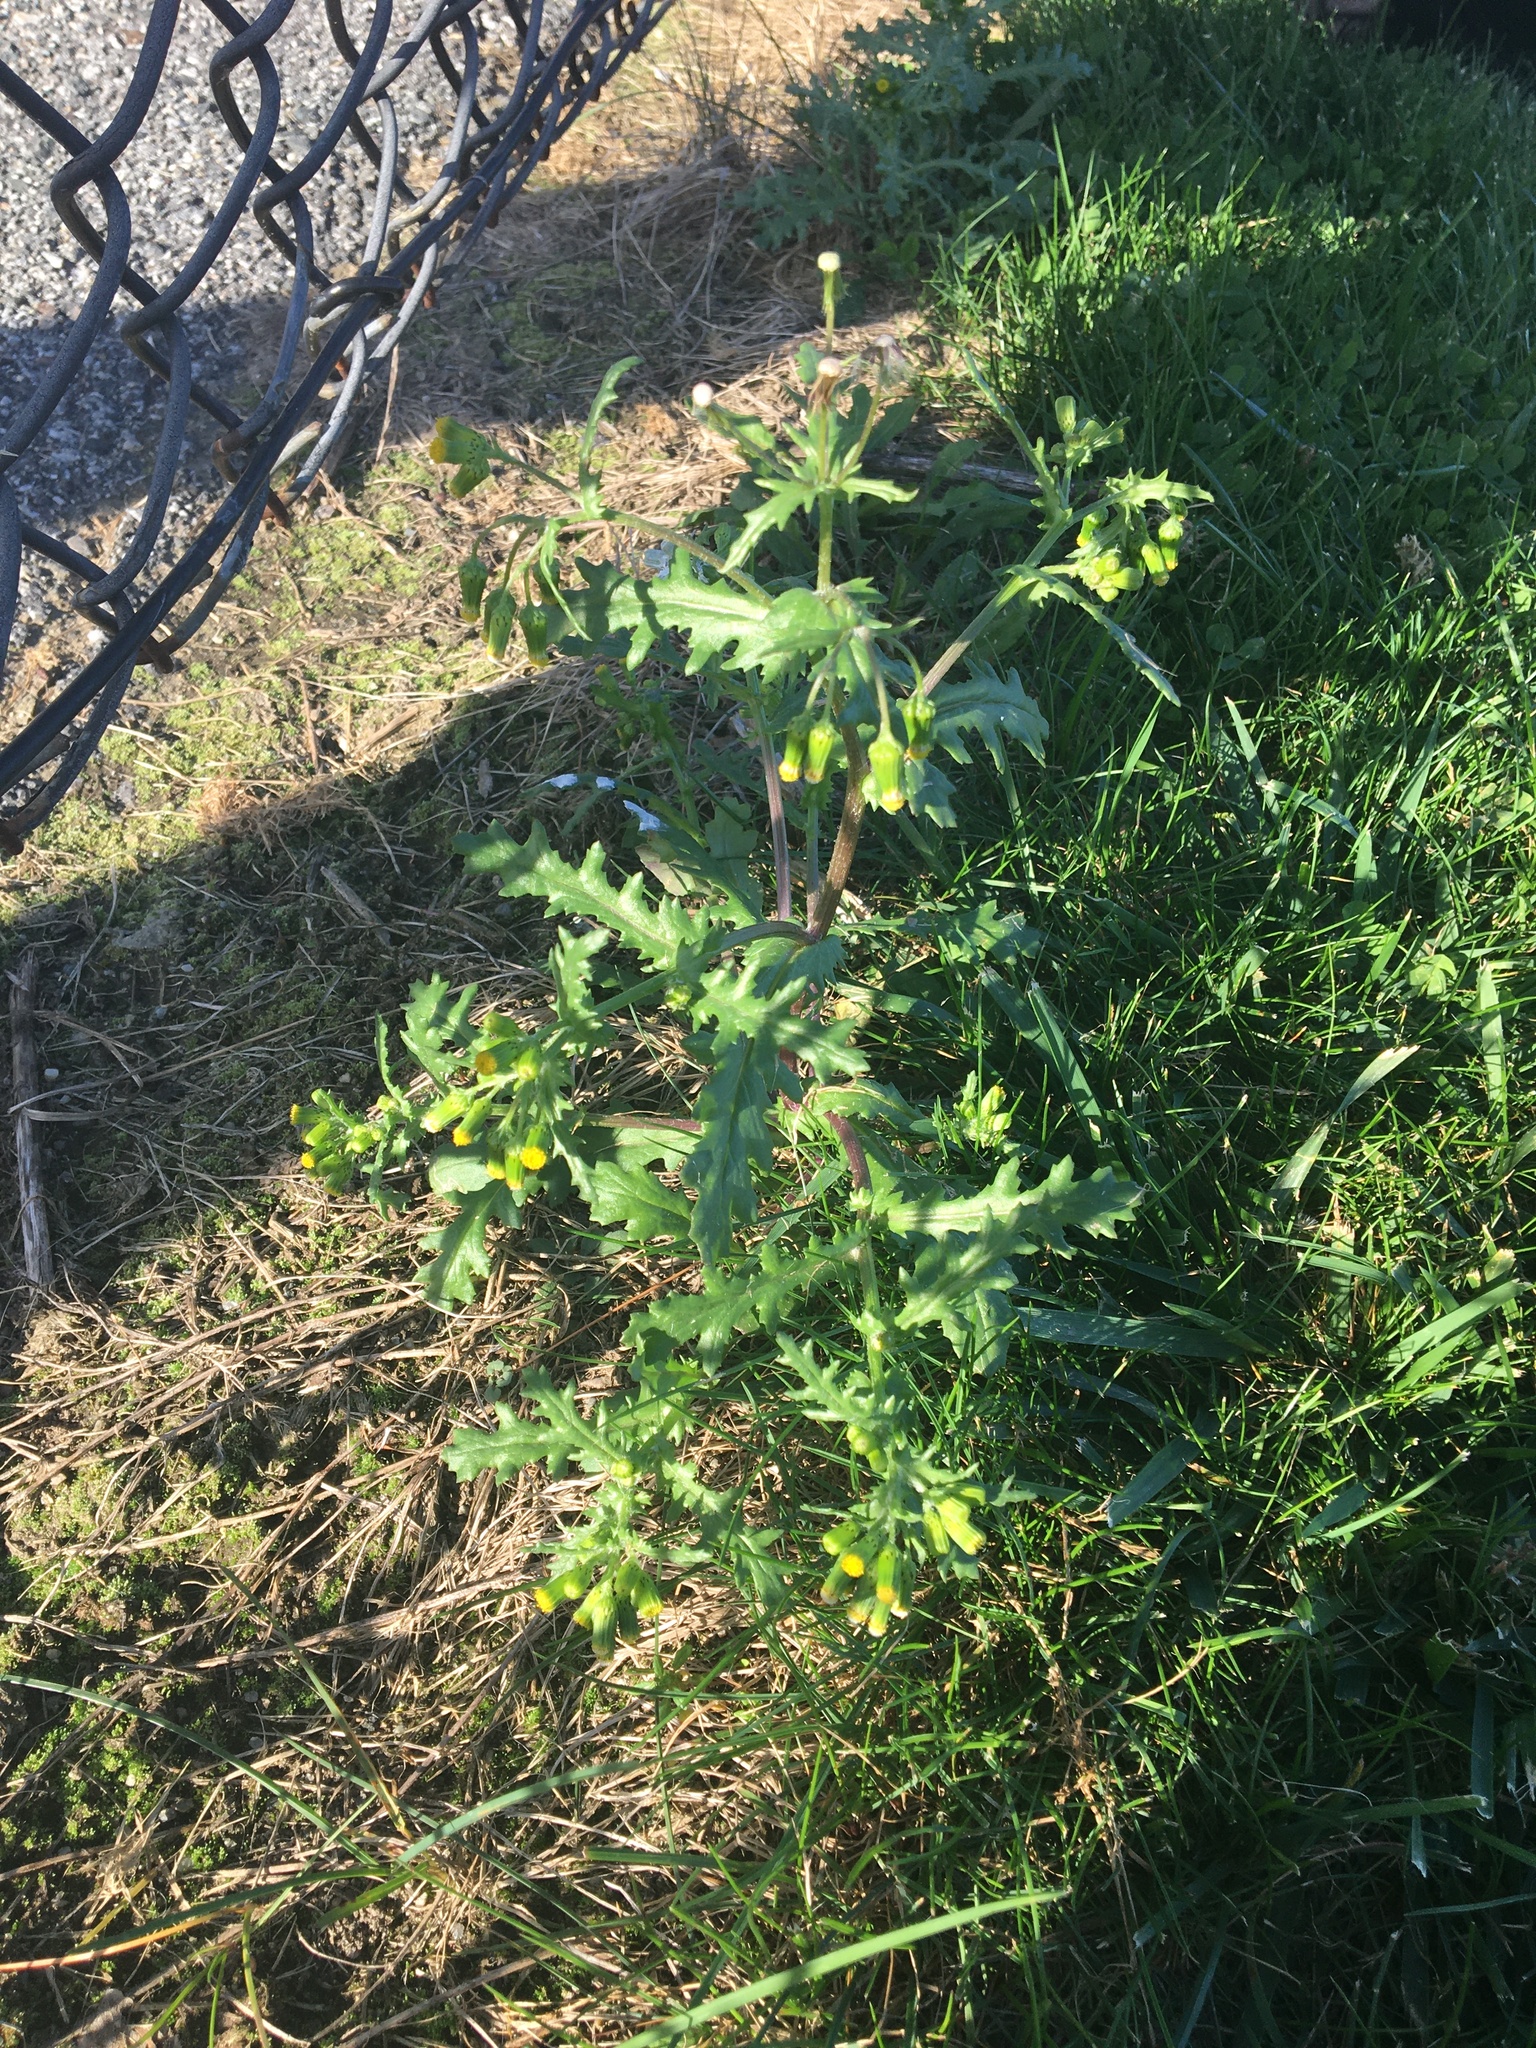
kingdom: Plantae
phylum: Tracheophyta
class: Magnoliopsida
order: Asterales
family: Asteraceae
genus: Senecio
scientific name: Senecio vulgaris
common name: Old-man-in-the-spring
